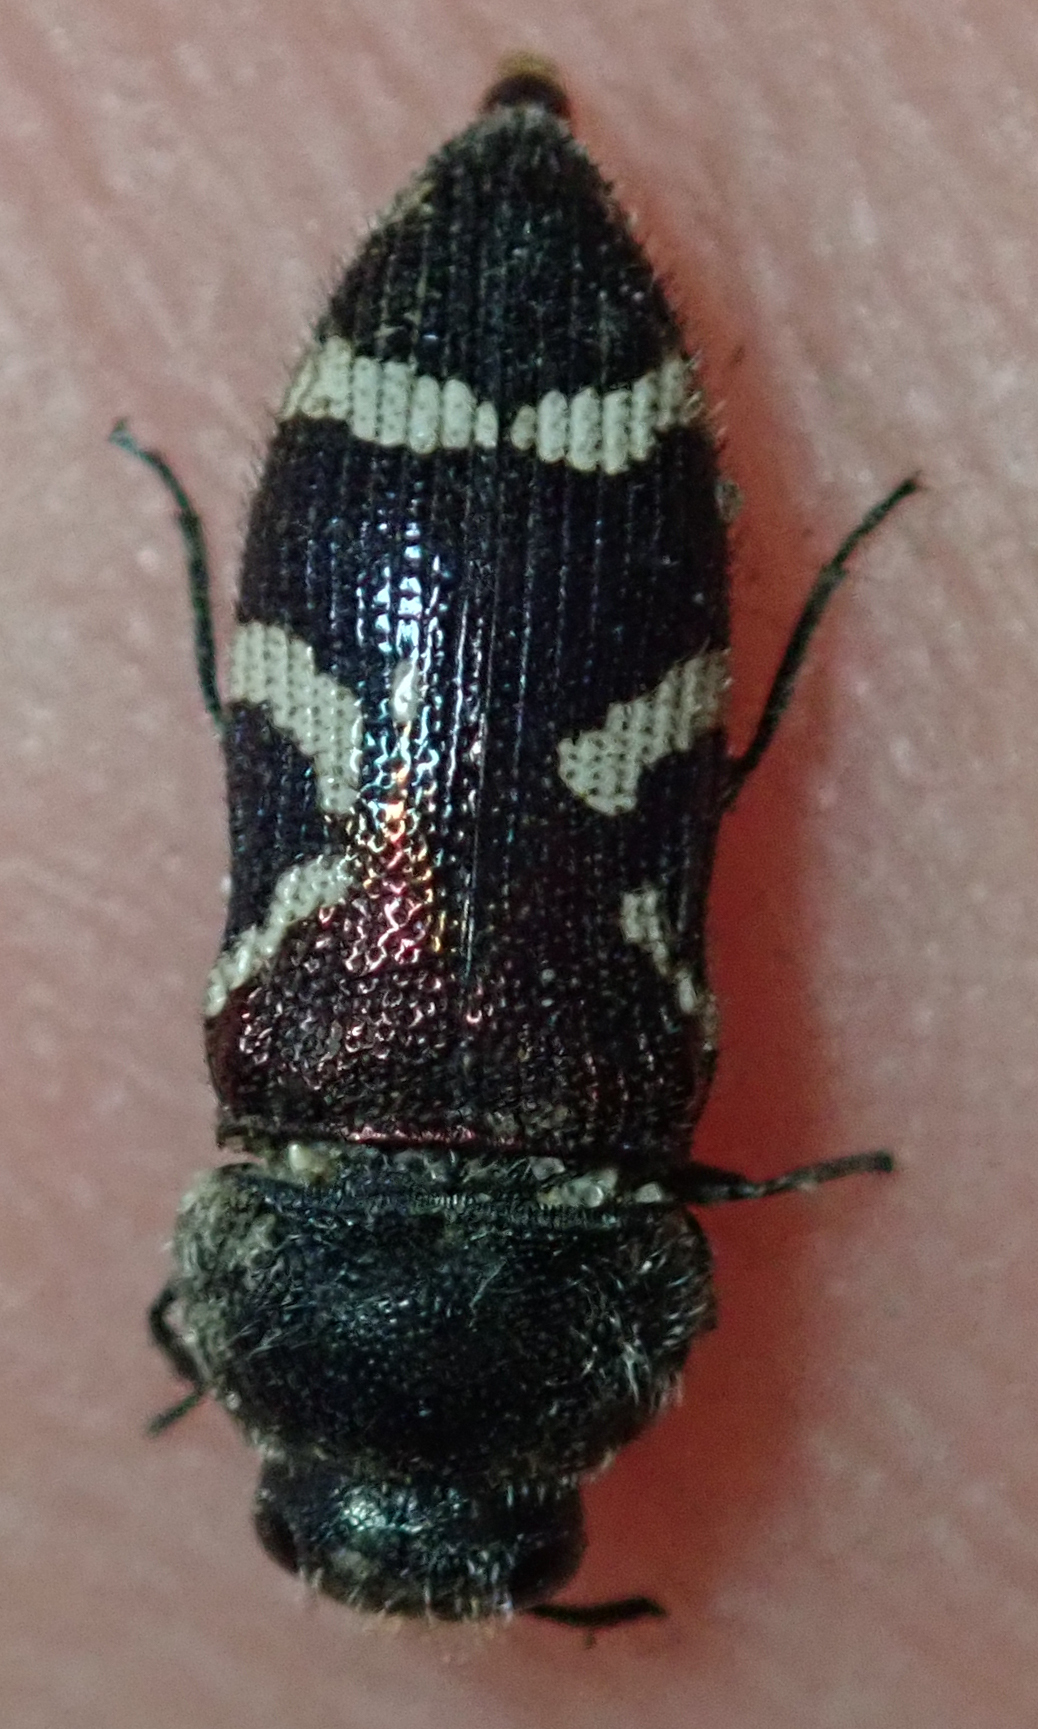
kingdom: Animalia
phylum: Arthropoda
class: Insecta
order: Coleoptera
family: Buprestidae
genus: Acmaeodera
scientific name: Acmaeodera virgo
